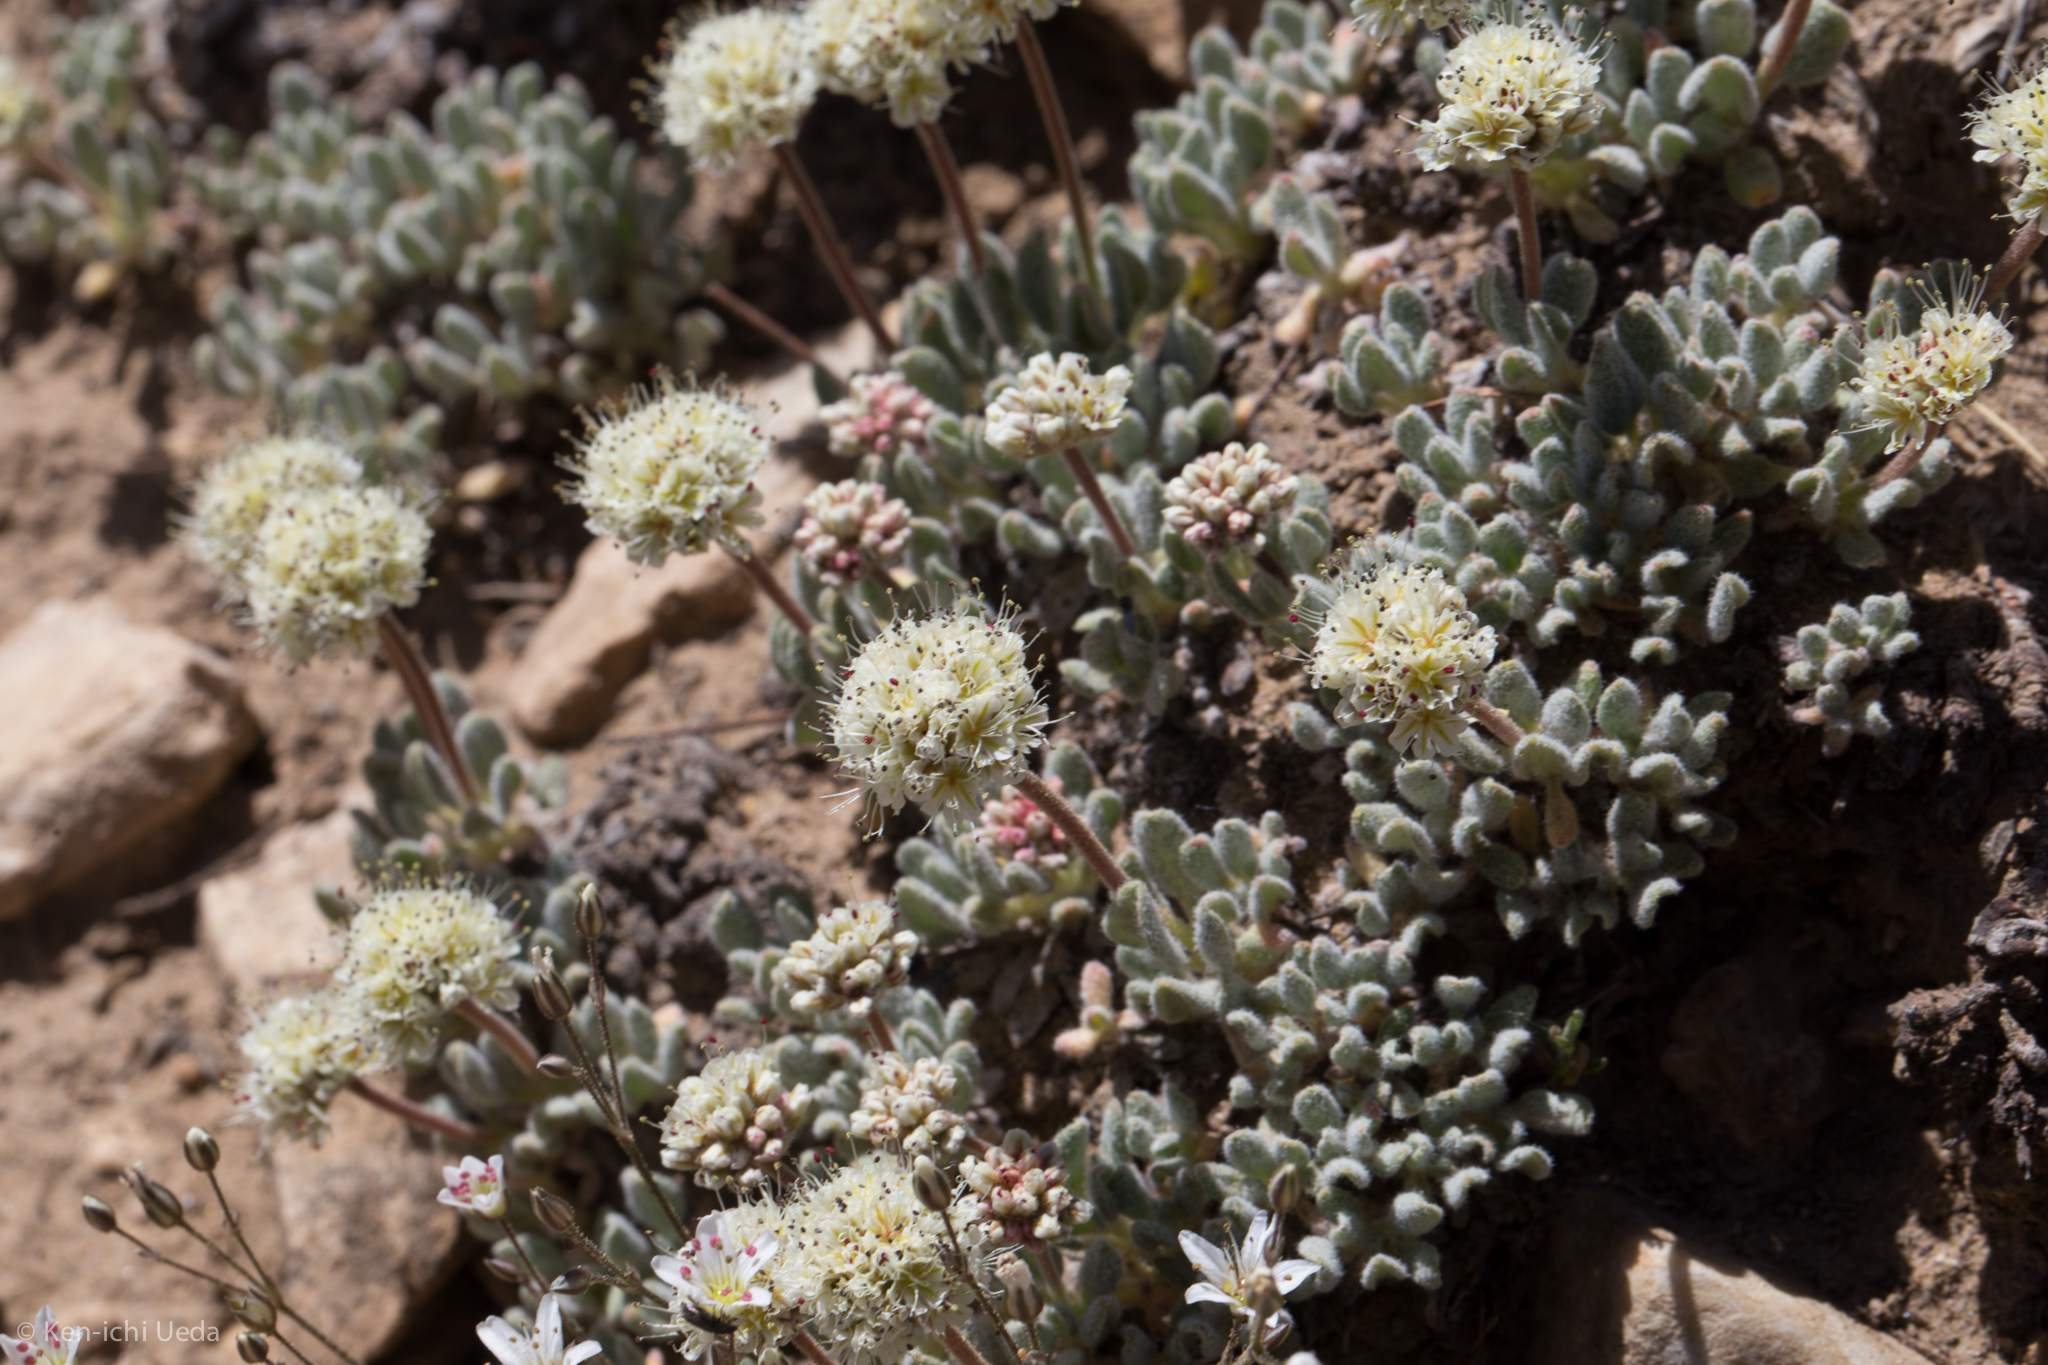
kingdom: Plantae
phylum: Tracheophyta
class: Magnoliopsida
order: Caryophyllales
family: Polygonaceae
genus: Eriogonum
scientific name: Eriogonum gracilipes
